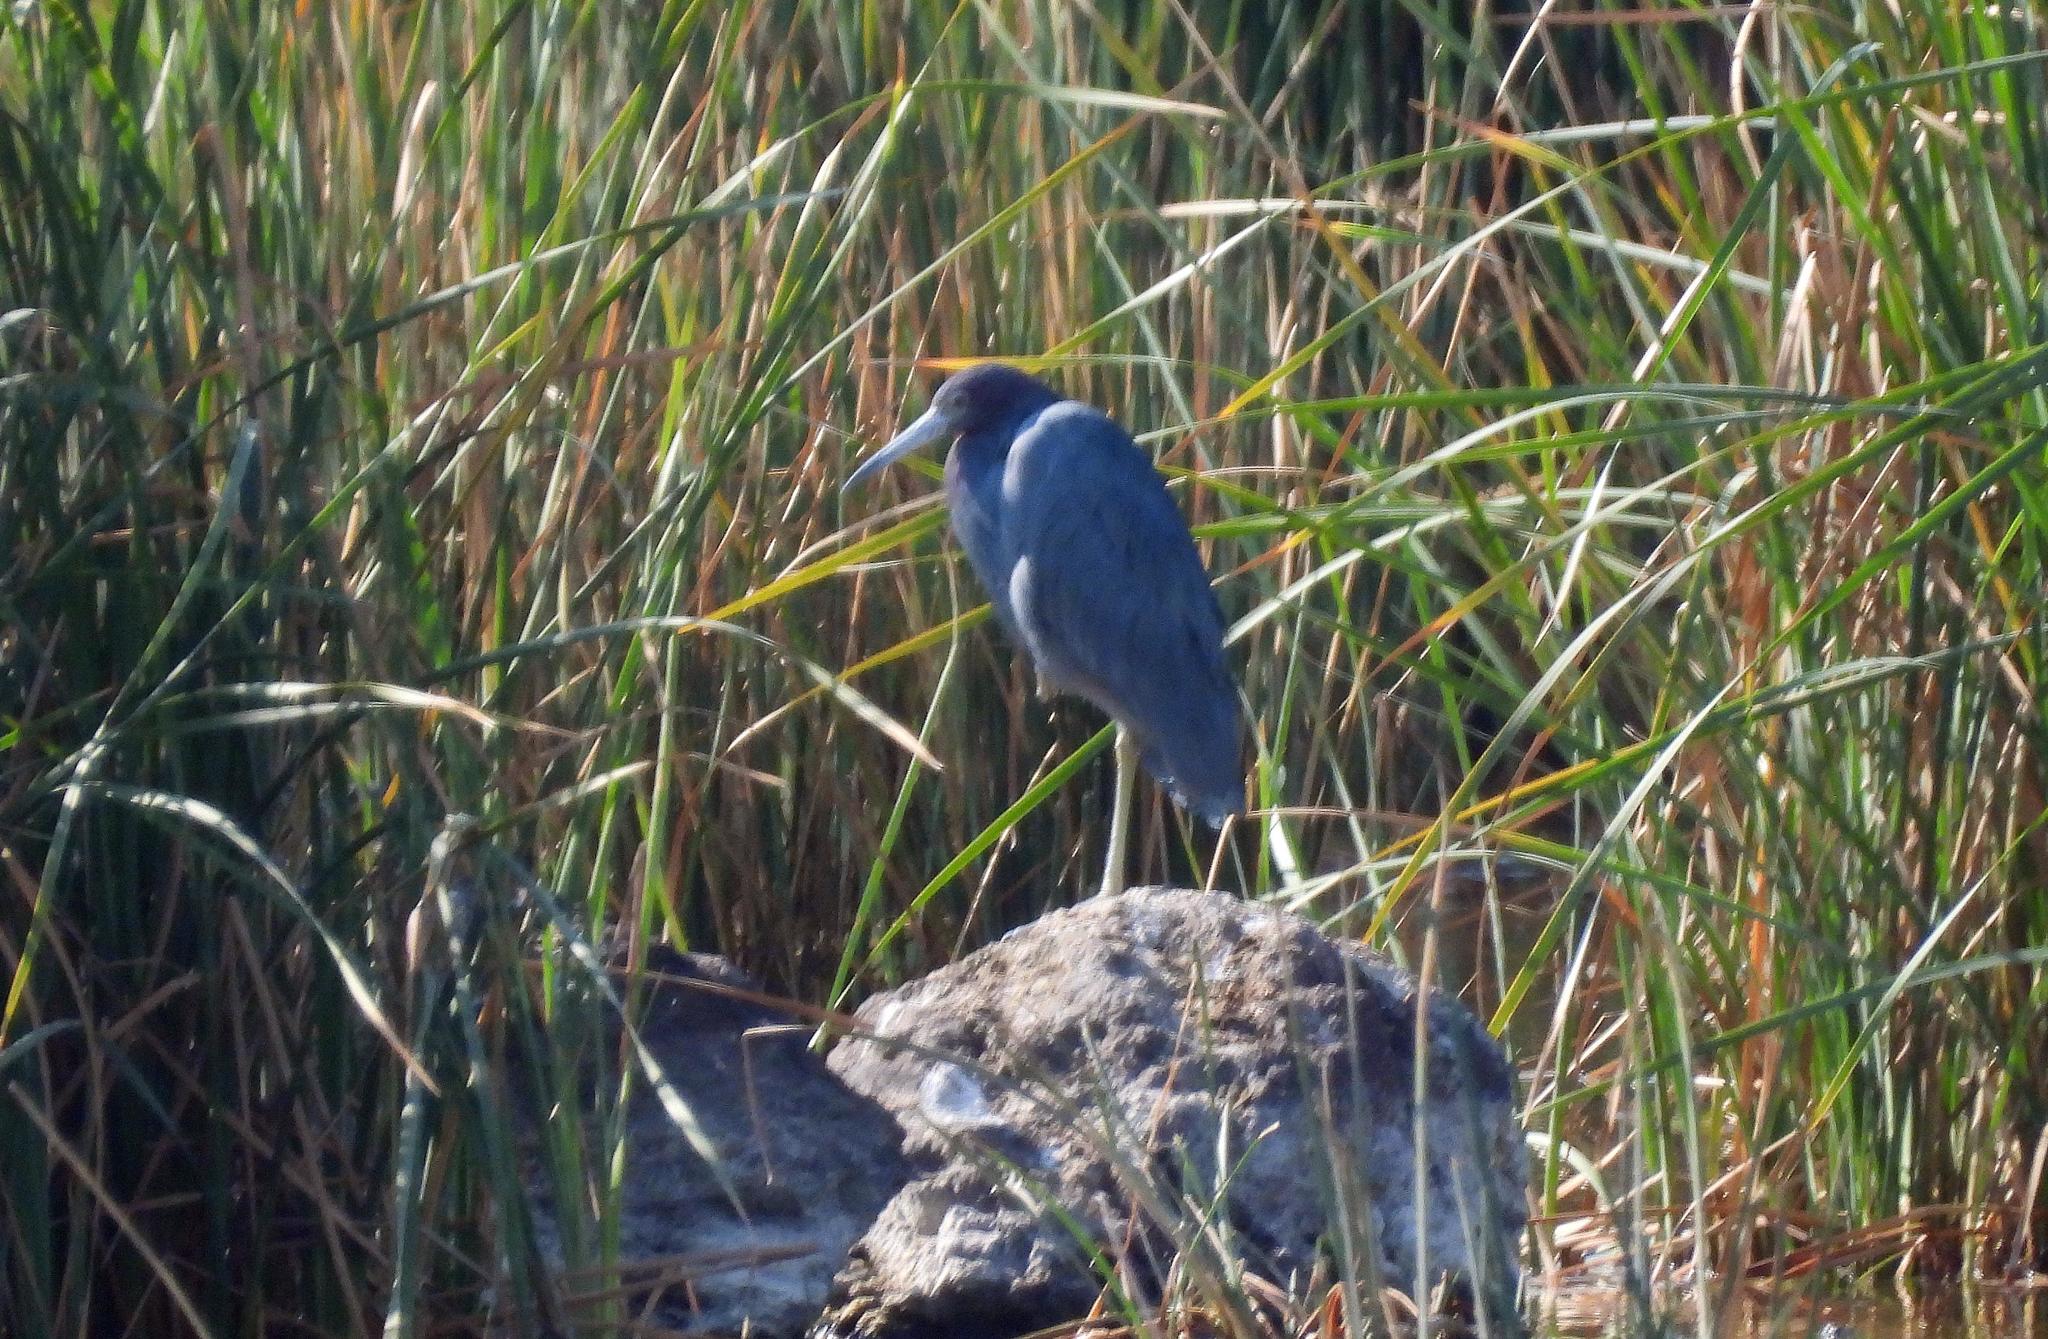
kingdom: Animalia
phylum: Chordata
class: Aves
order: Pelecaniformes
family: Ardeidae
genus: Egretta
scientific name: Egretta caerulea
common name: Little blue heron
